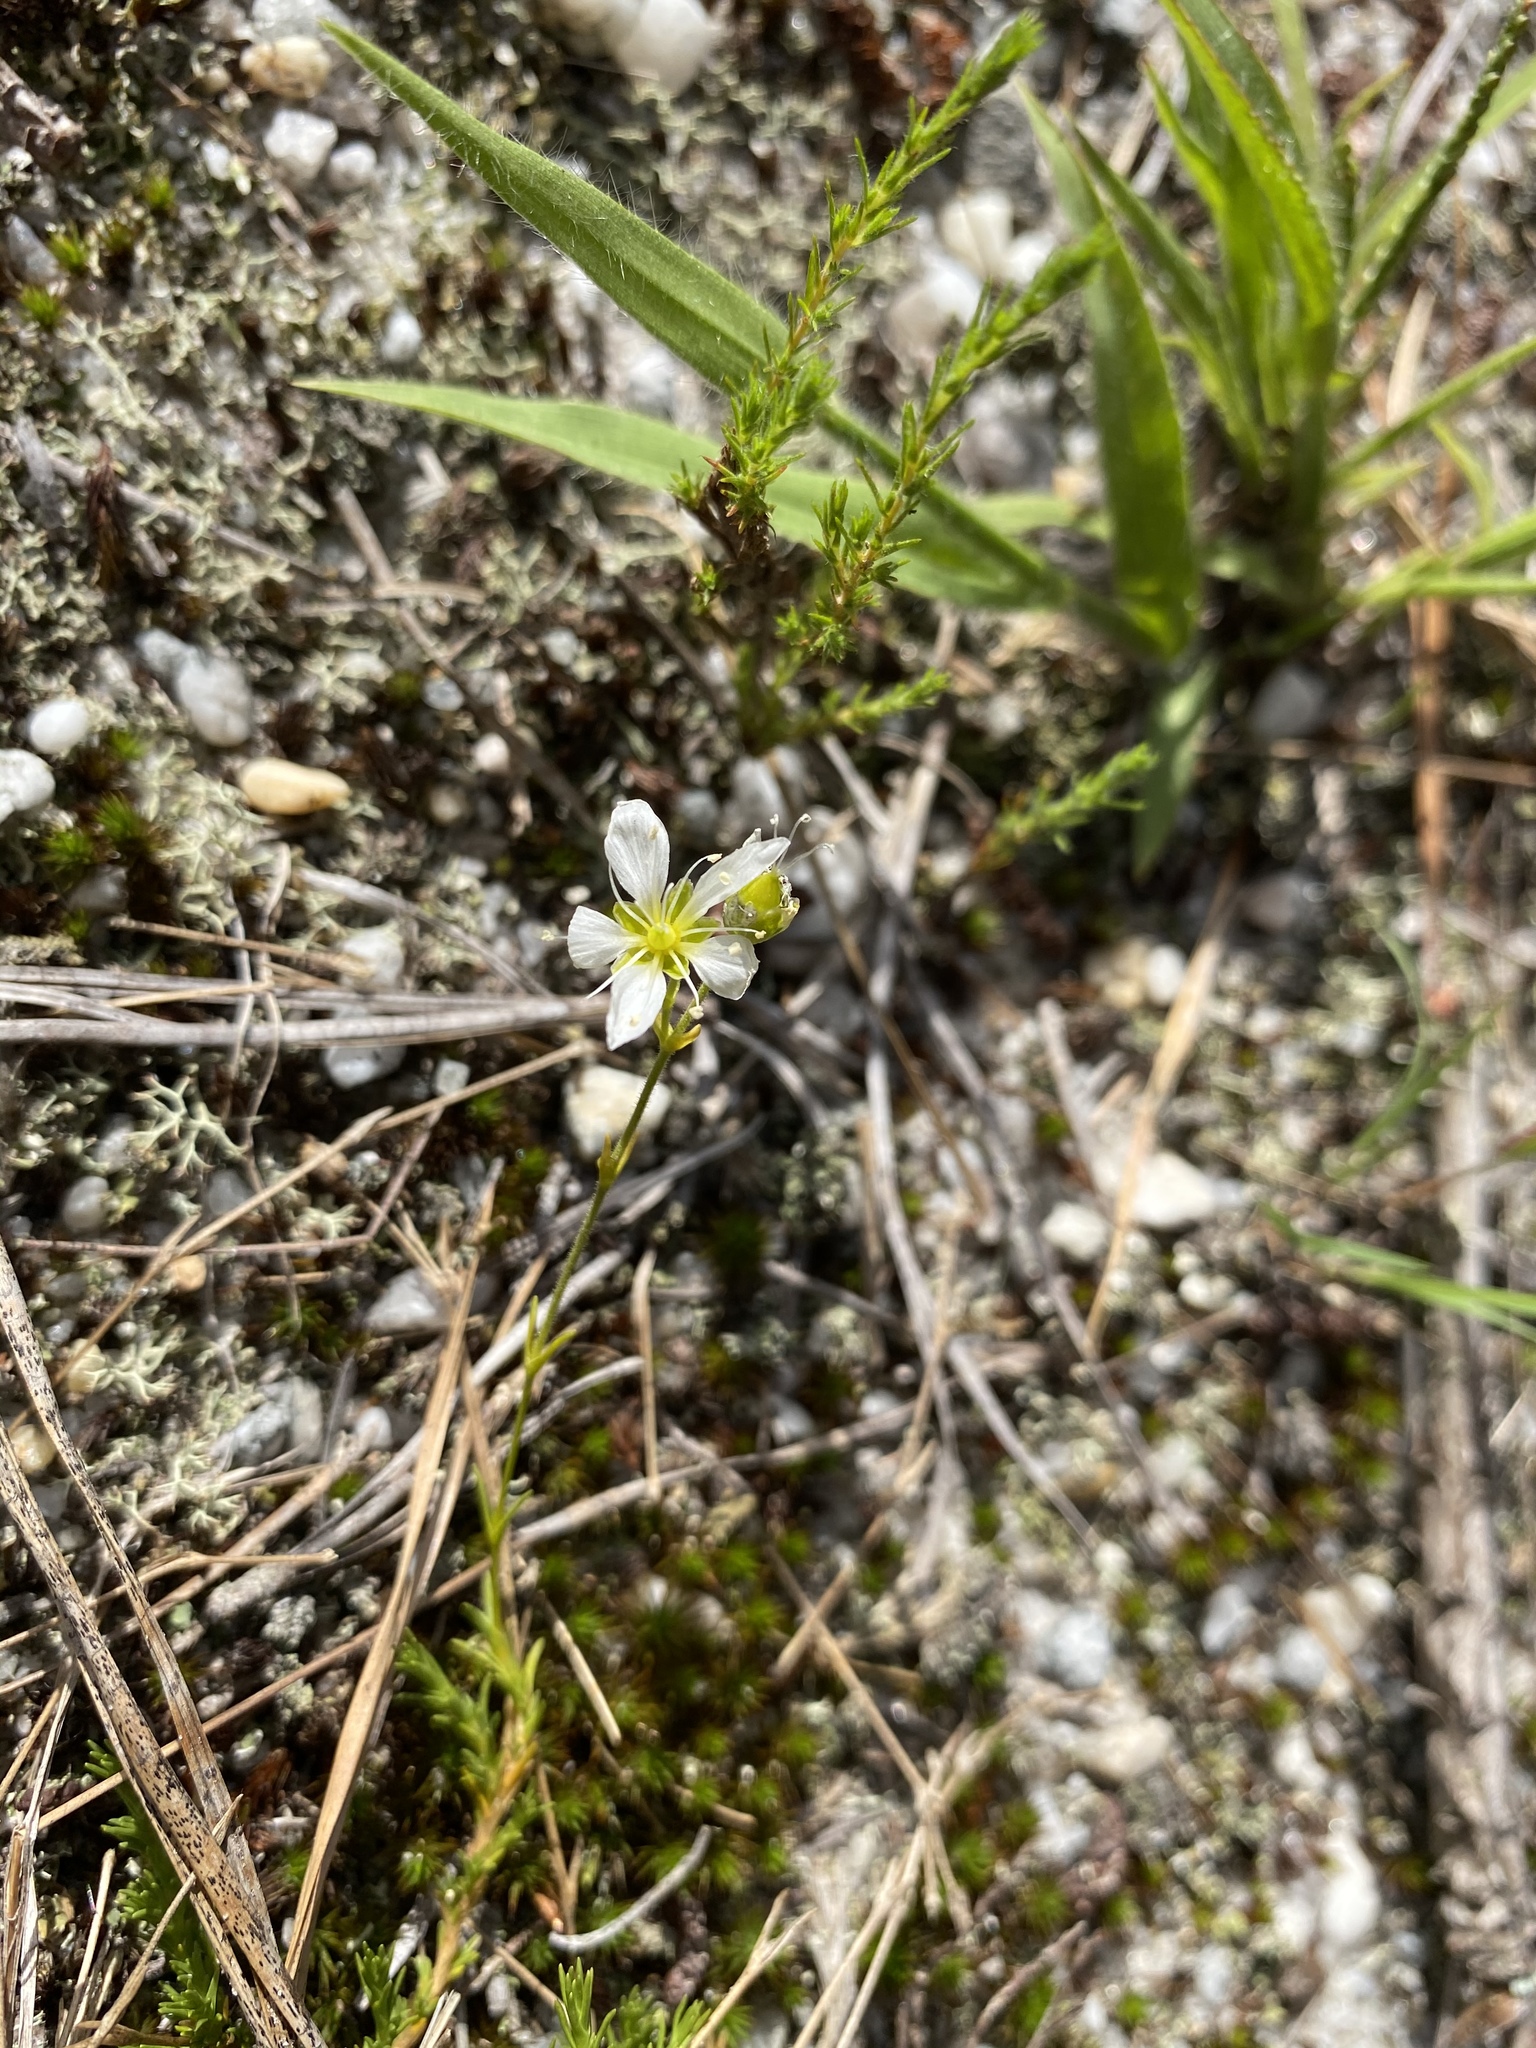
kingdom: Plantae
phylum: Tracheophyta
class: Magnoliopsida
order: Caryophyllales
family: Caryophyllaceae
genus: Geocarpon
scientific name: Geocarpon carolinianum
